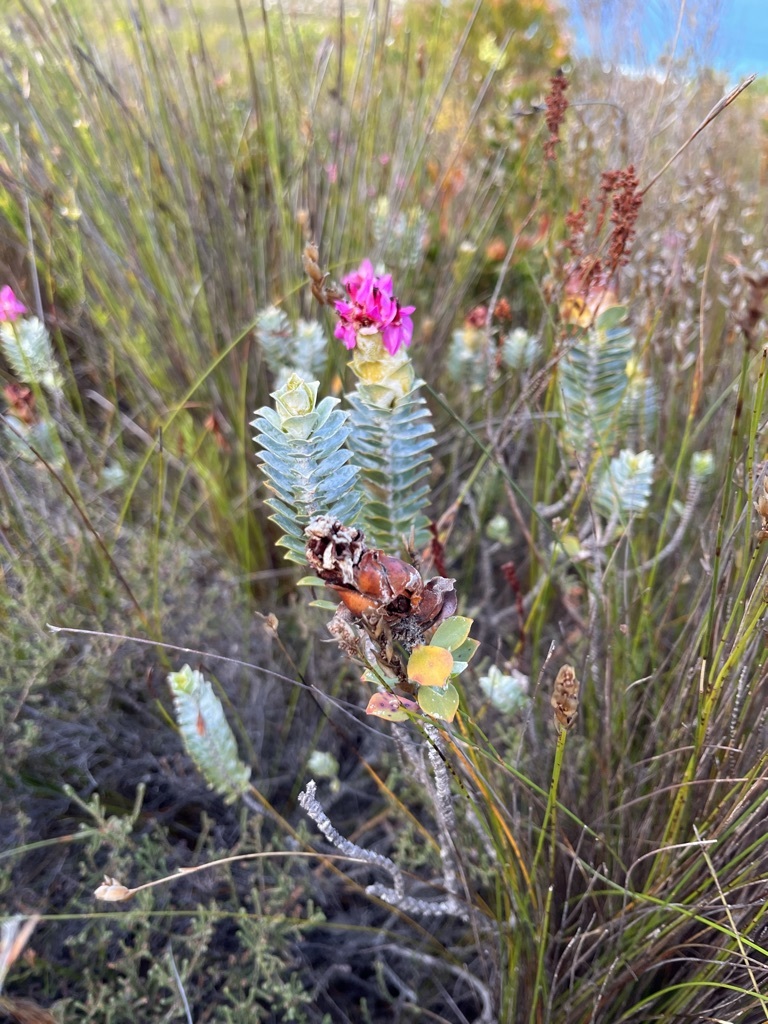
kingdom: Plantae
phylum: Tracheophyta
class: Magnoliopsida
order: Myrtales
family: Penaeaceae
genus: Saltera
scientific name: Saltera sarcocolla
